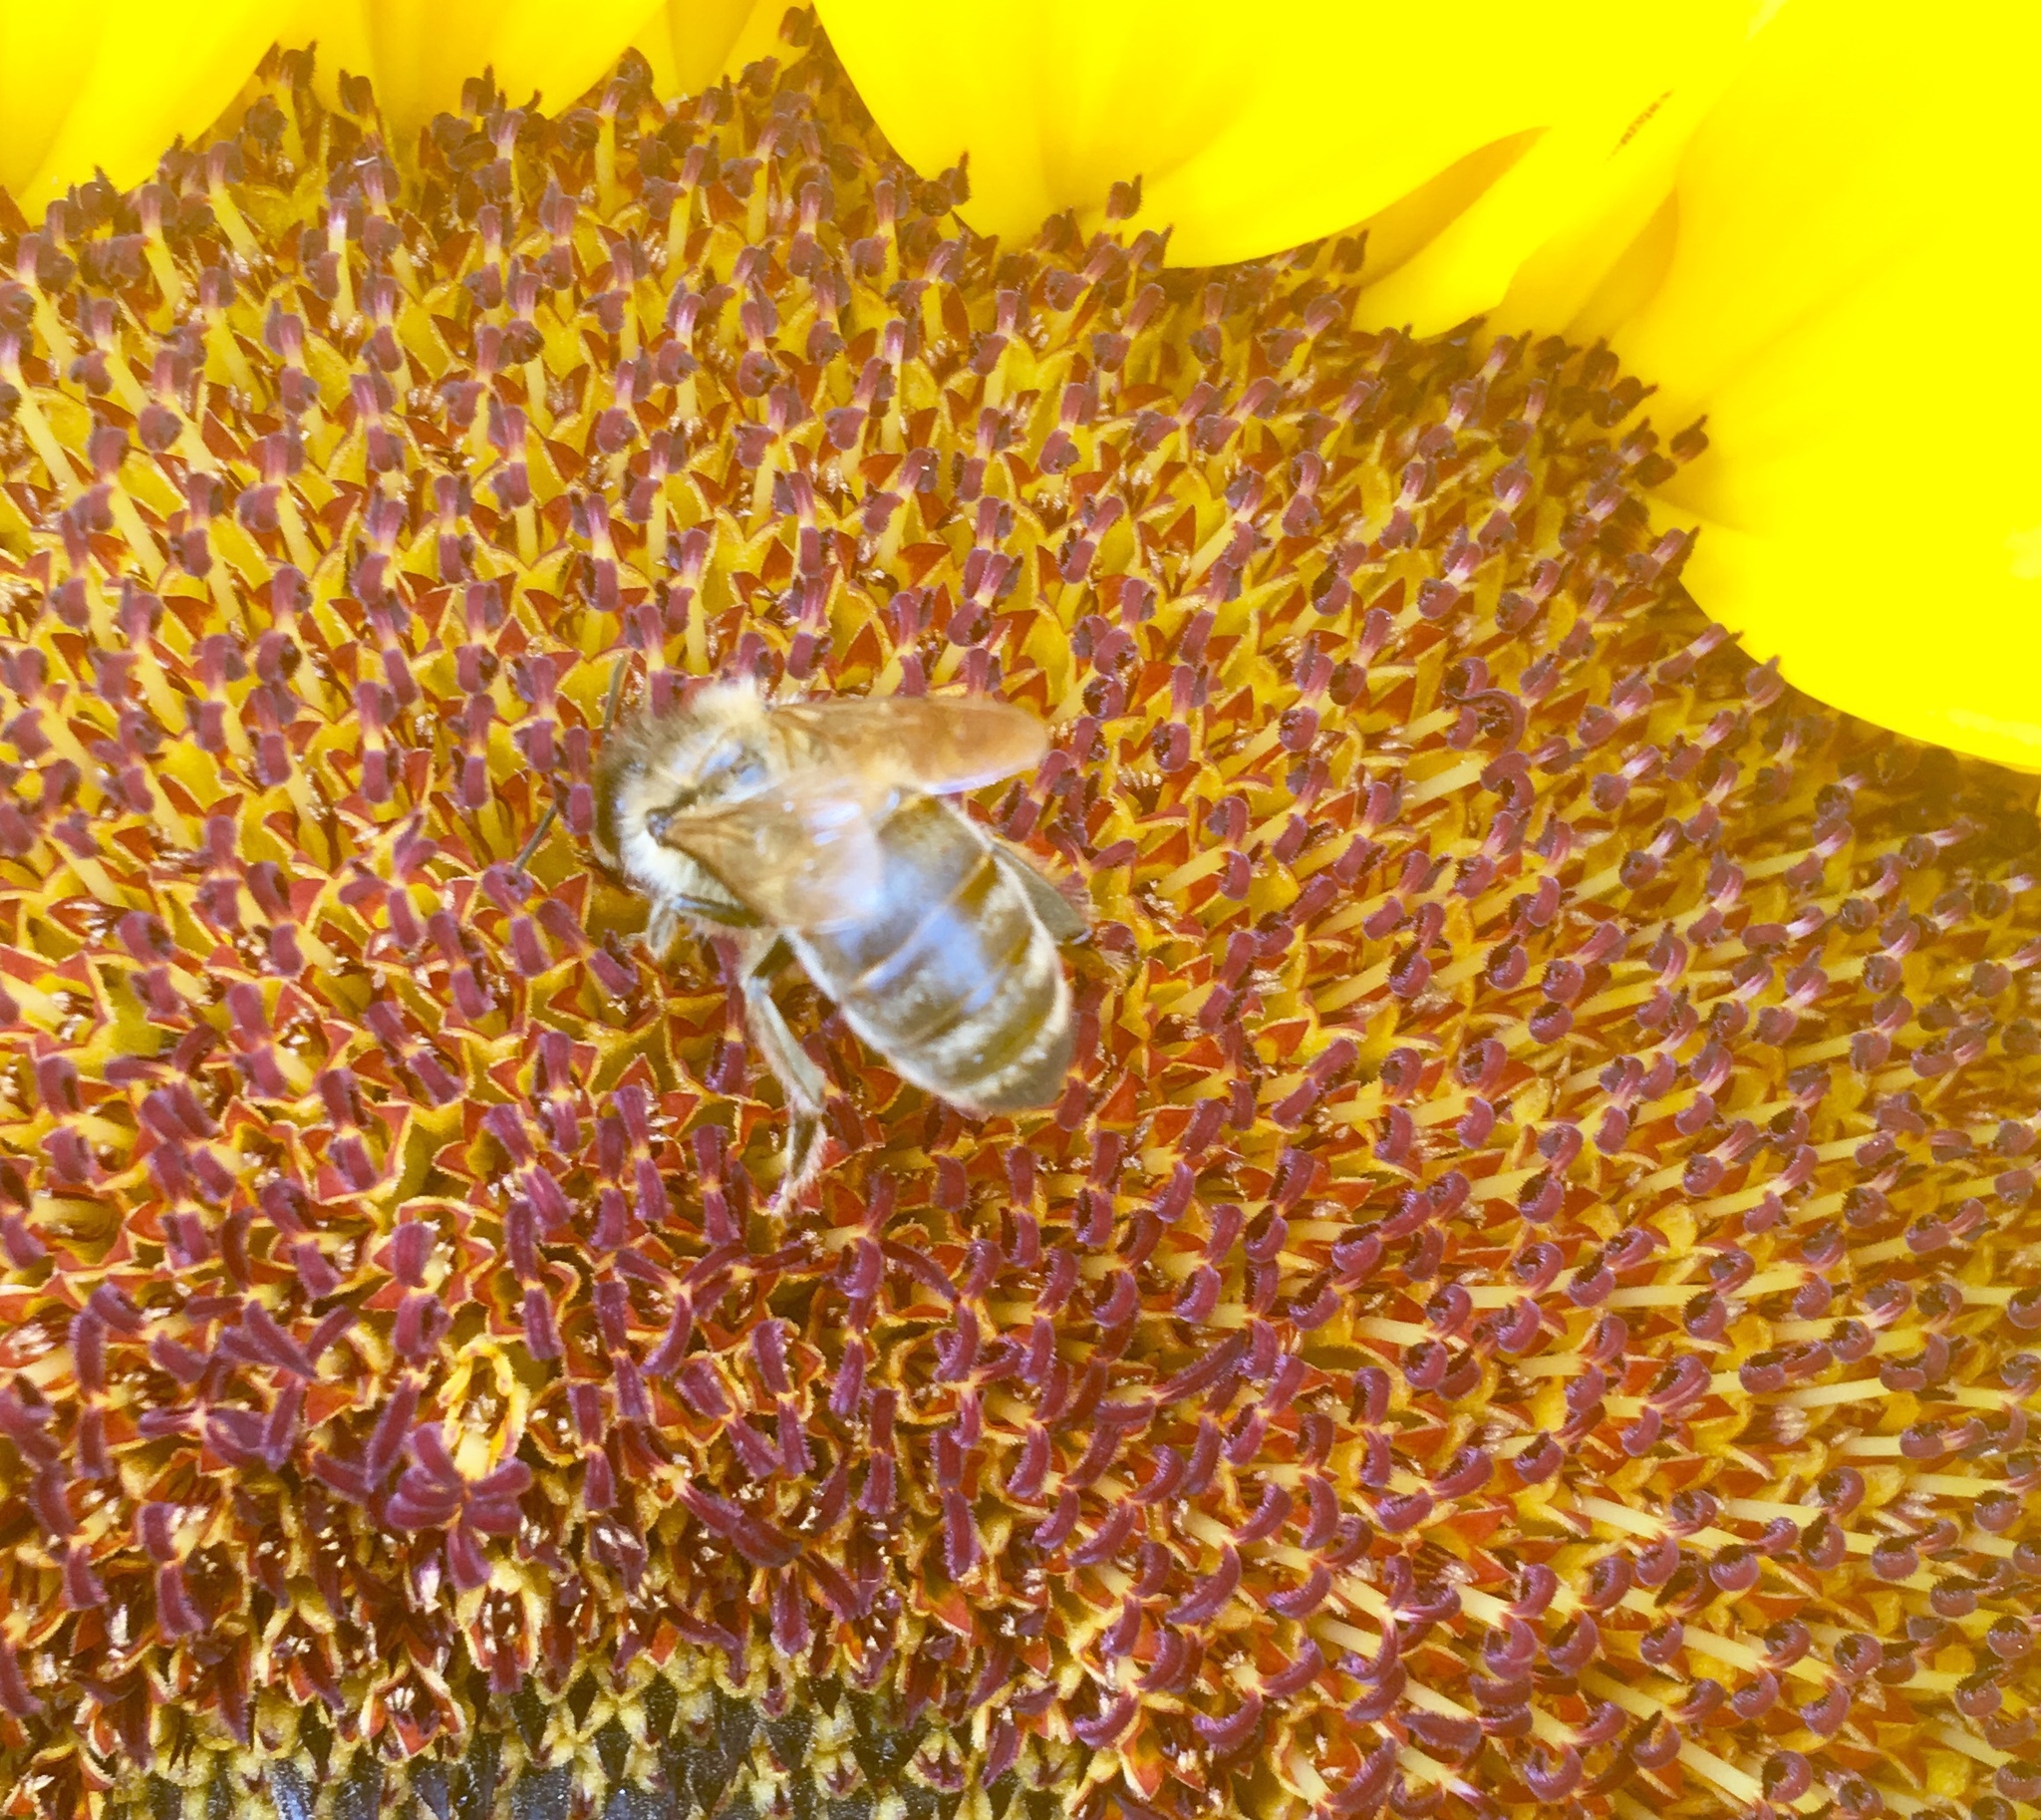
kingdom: Animalia
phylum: Arthropoda
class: Insecta
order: Hymenoptera
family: Apidae
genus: Apis
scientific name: Apis mellifera
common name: Honey bee
